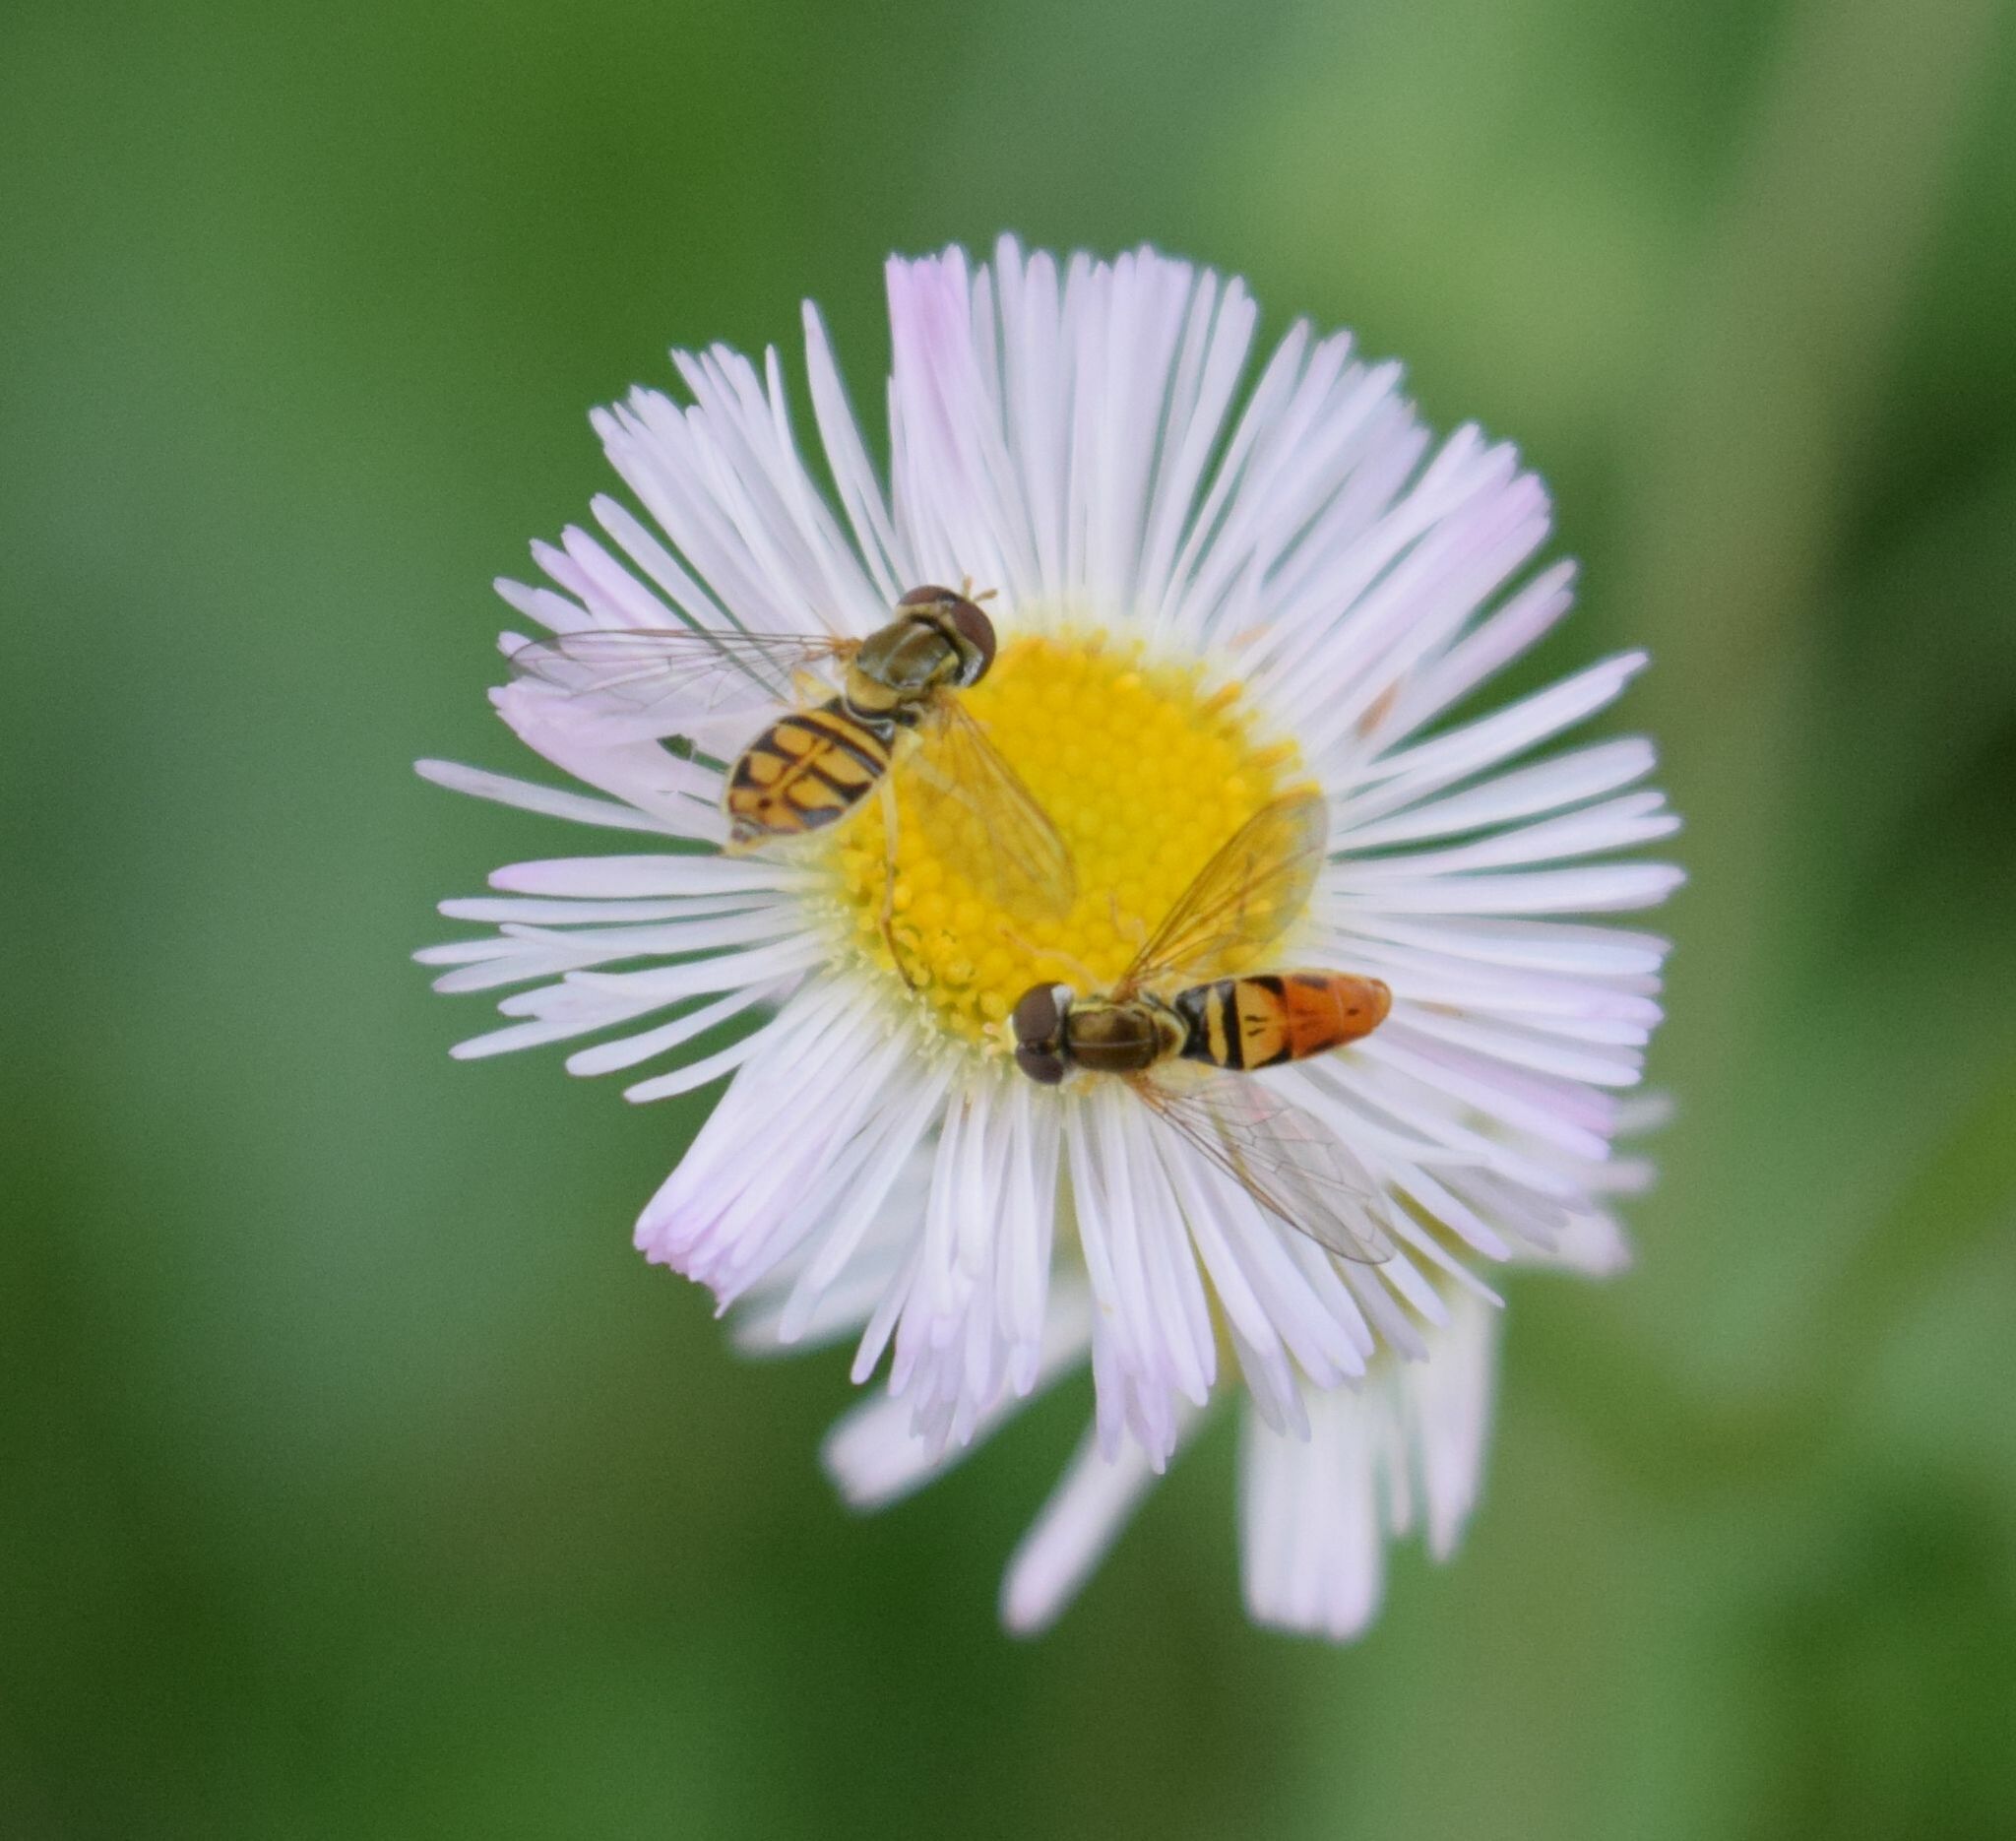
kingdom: Animalia
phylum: Arthropoda
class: Insecta
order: Diptera
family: Syrphidae
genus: Toxomerus
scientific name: Toxomerus marginatus
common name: Syrphid fly
